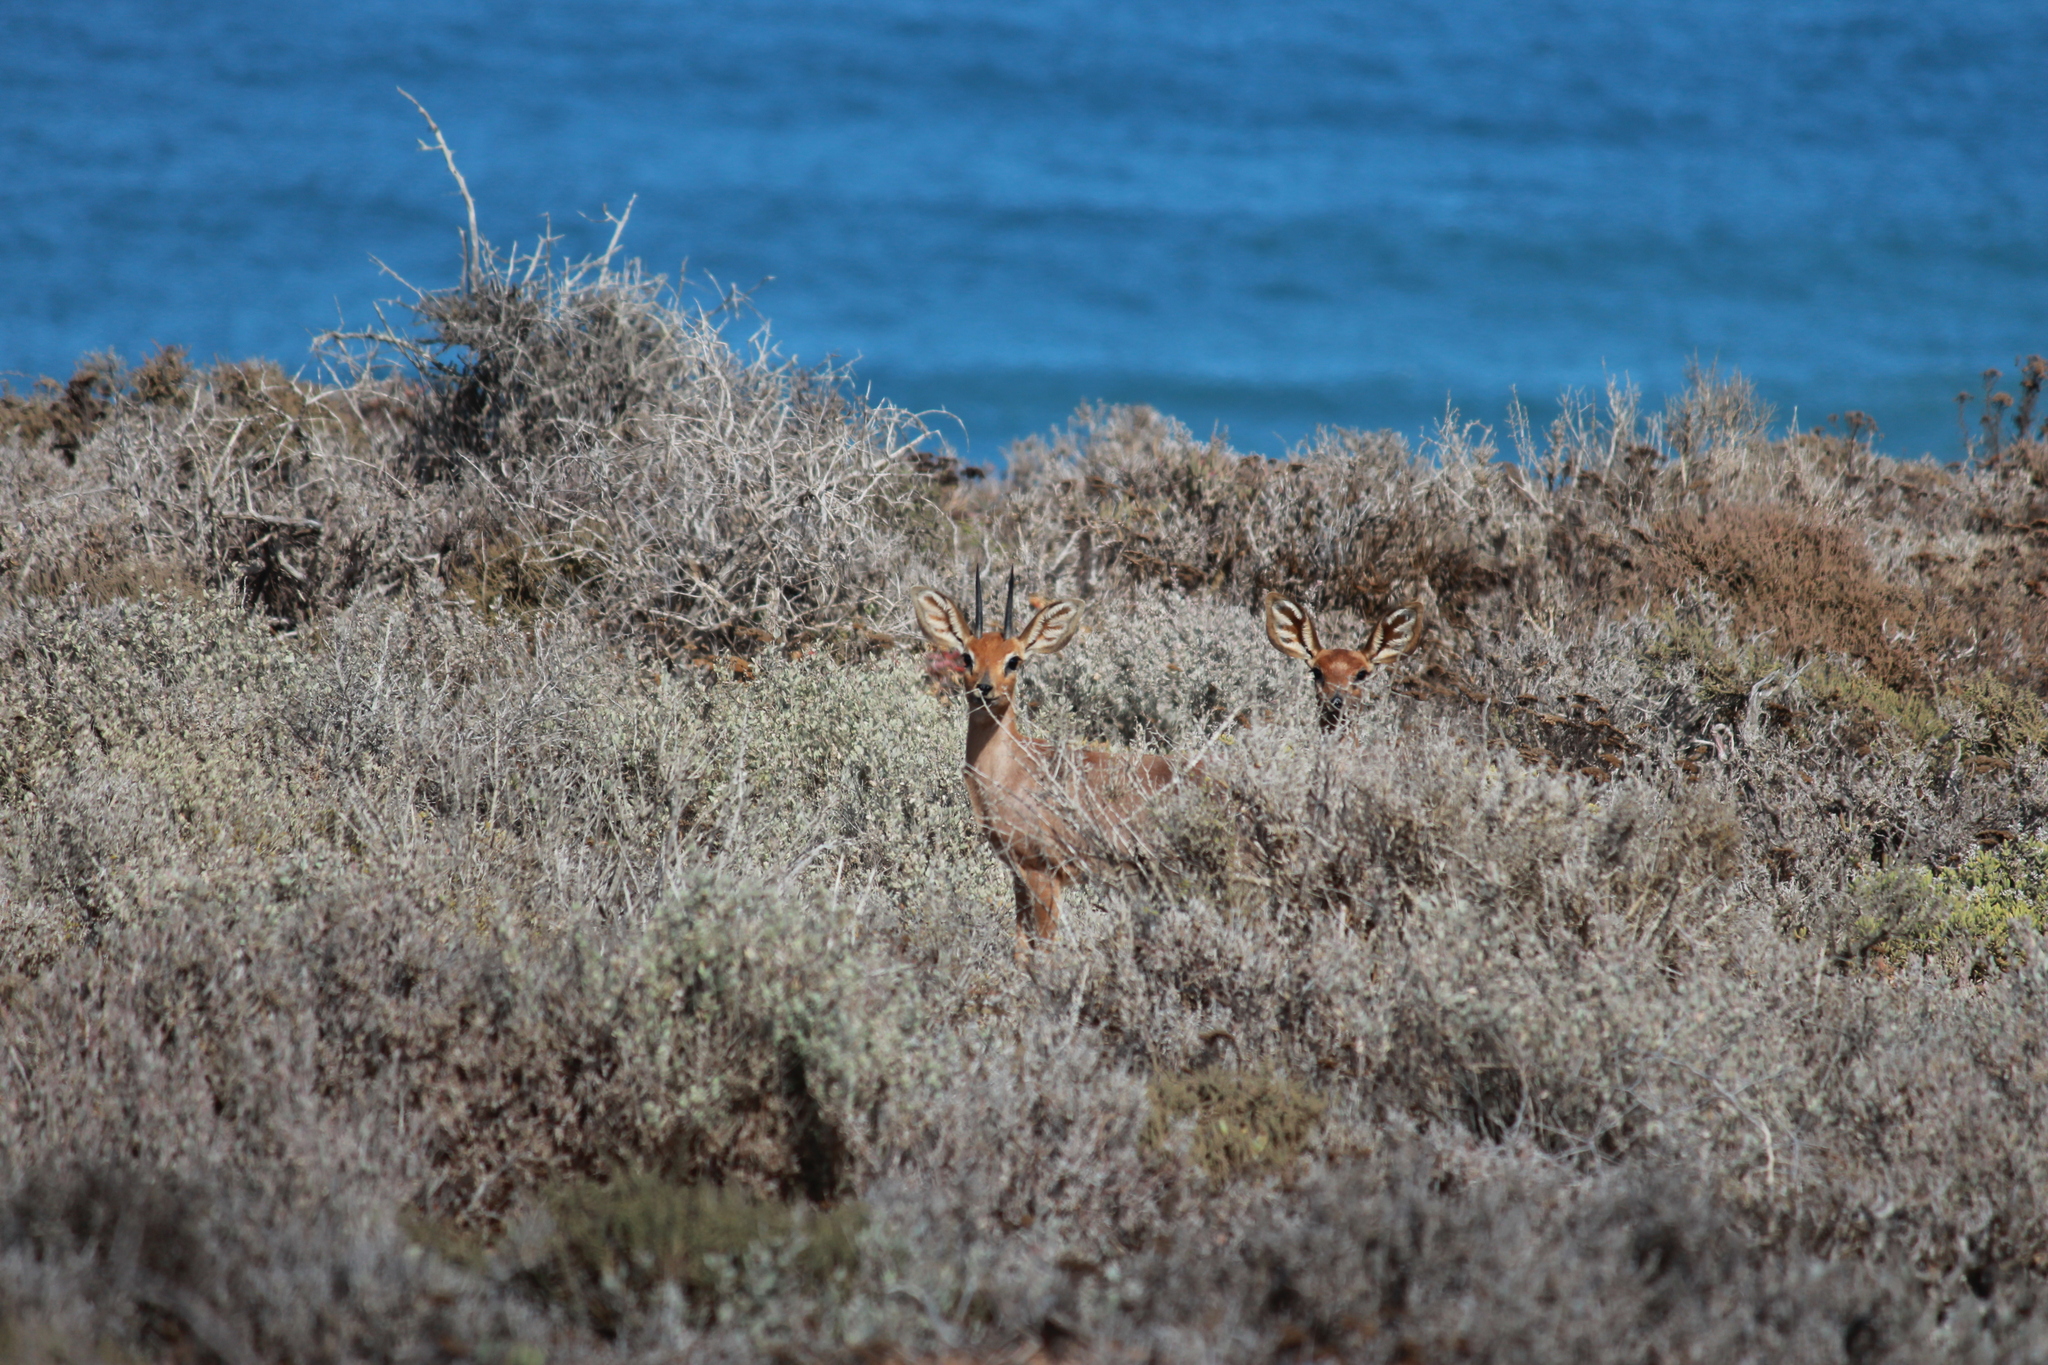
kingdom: Animalia
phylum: Chordata
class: Mammalia
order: Artiodactyla
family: Bovidae
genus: Raphicerus
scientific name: Raphicerus campestris
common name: Steenbok
